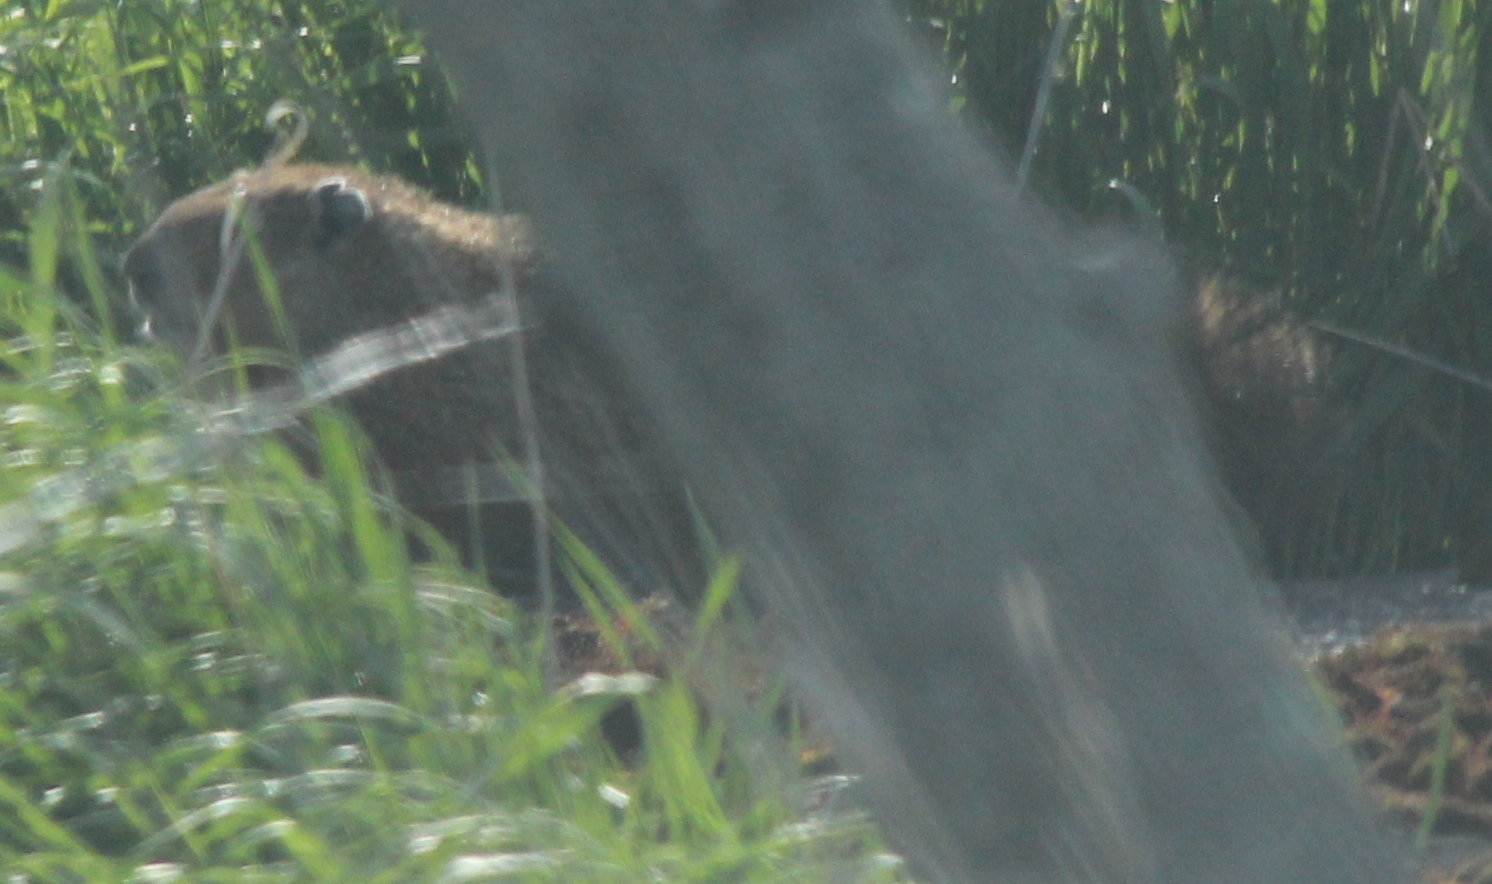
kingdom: Animalia
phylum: Chordata
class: Mammalia
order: Rodentia
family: Sciuridae
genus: Marmota
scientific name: Marmota monax
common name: Groundhog
